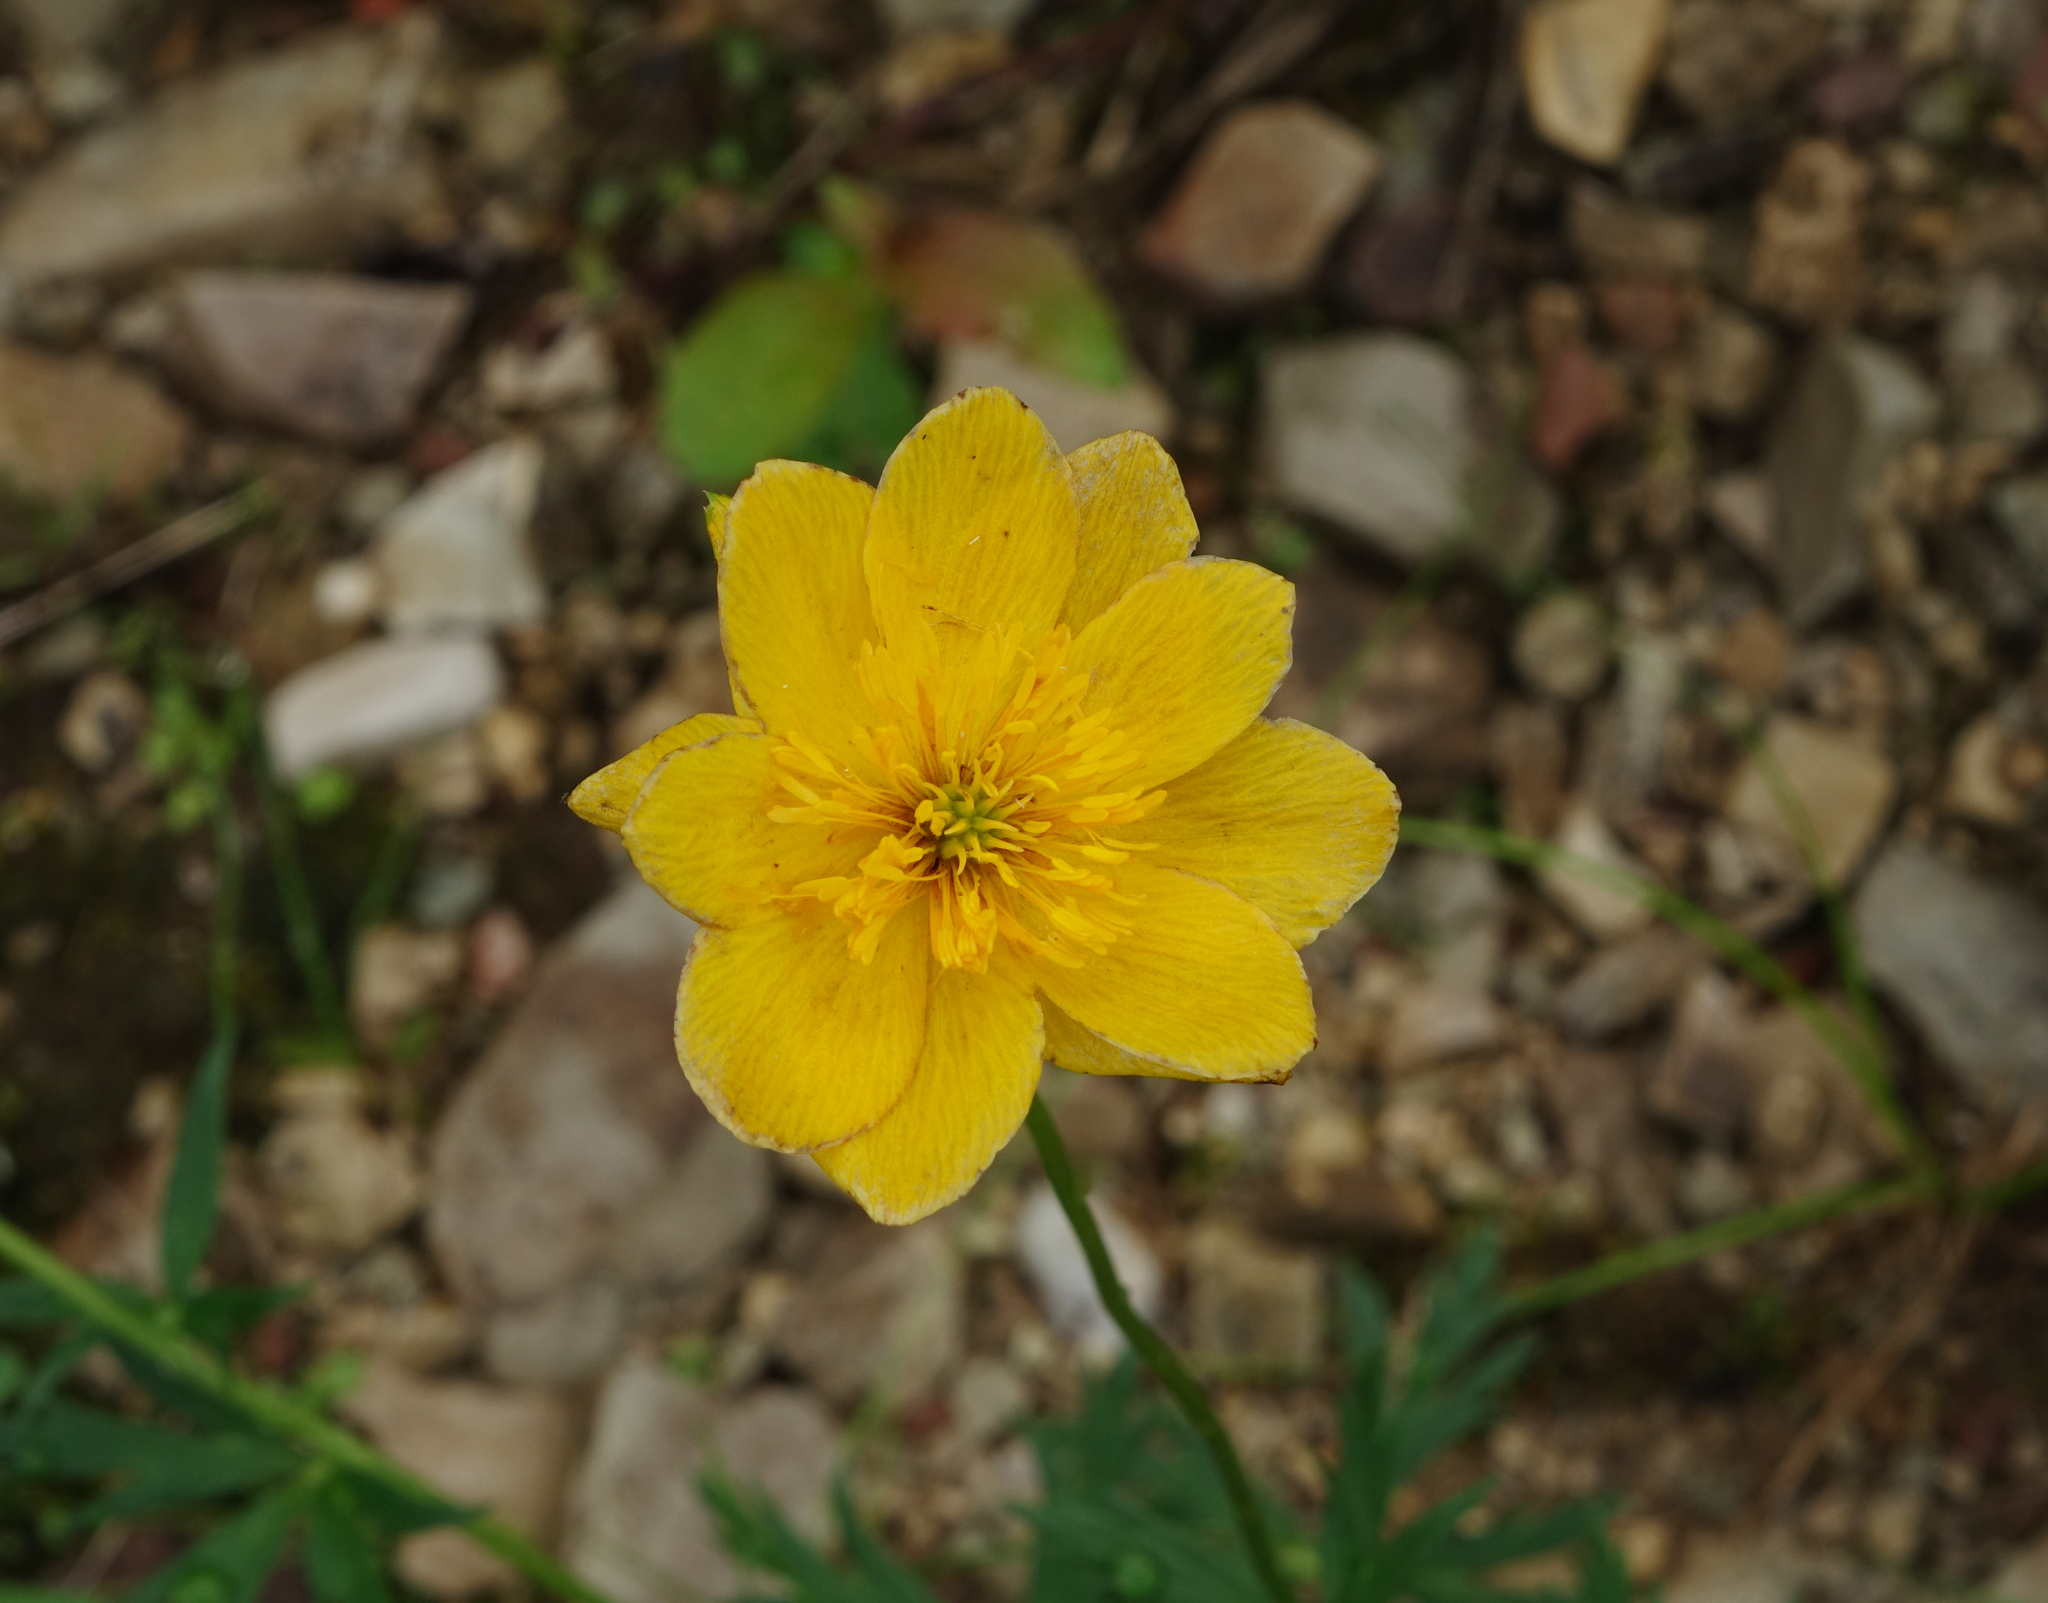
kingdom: Plantae
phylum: Tracheophyta
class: Magnoliopsida
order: Ranunculales
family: Ranunculaceae
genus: Trollius
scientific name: Trollius membranostylis
